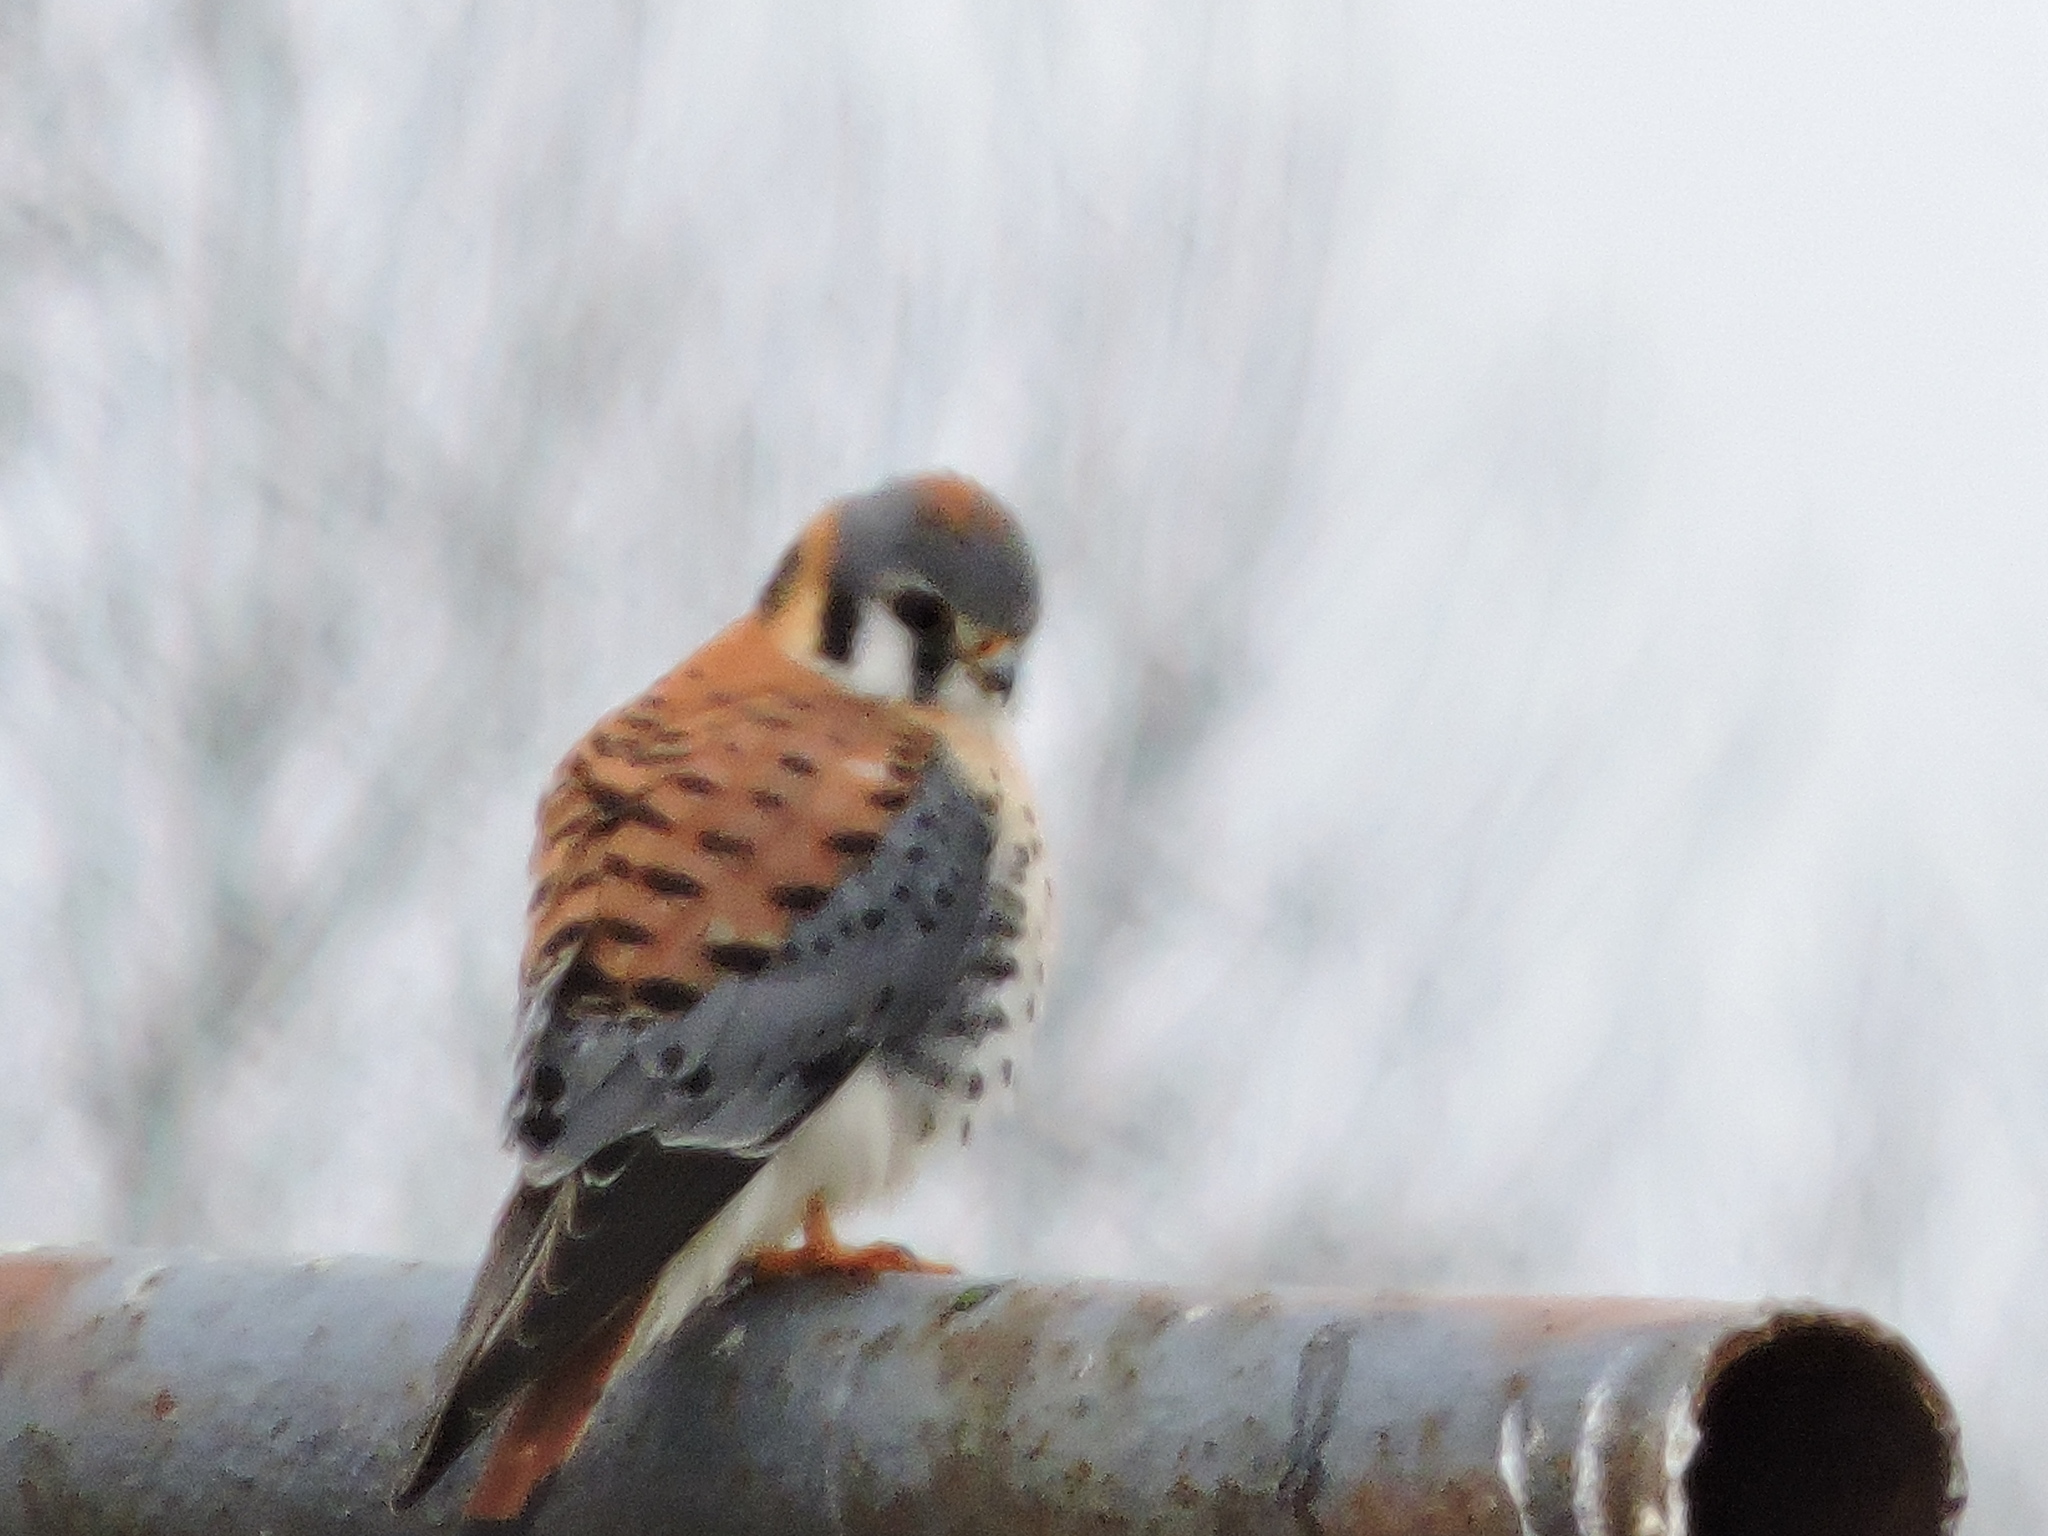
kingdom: Animalia
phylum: Chordata
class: Aves
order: Falconiformes
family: Falconidae
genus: Falco
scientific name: Falco sparverius
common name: American kestrel
